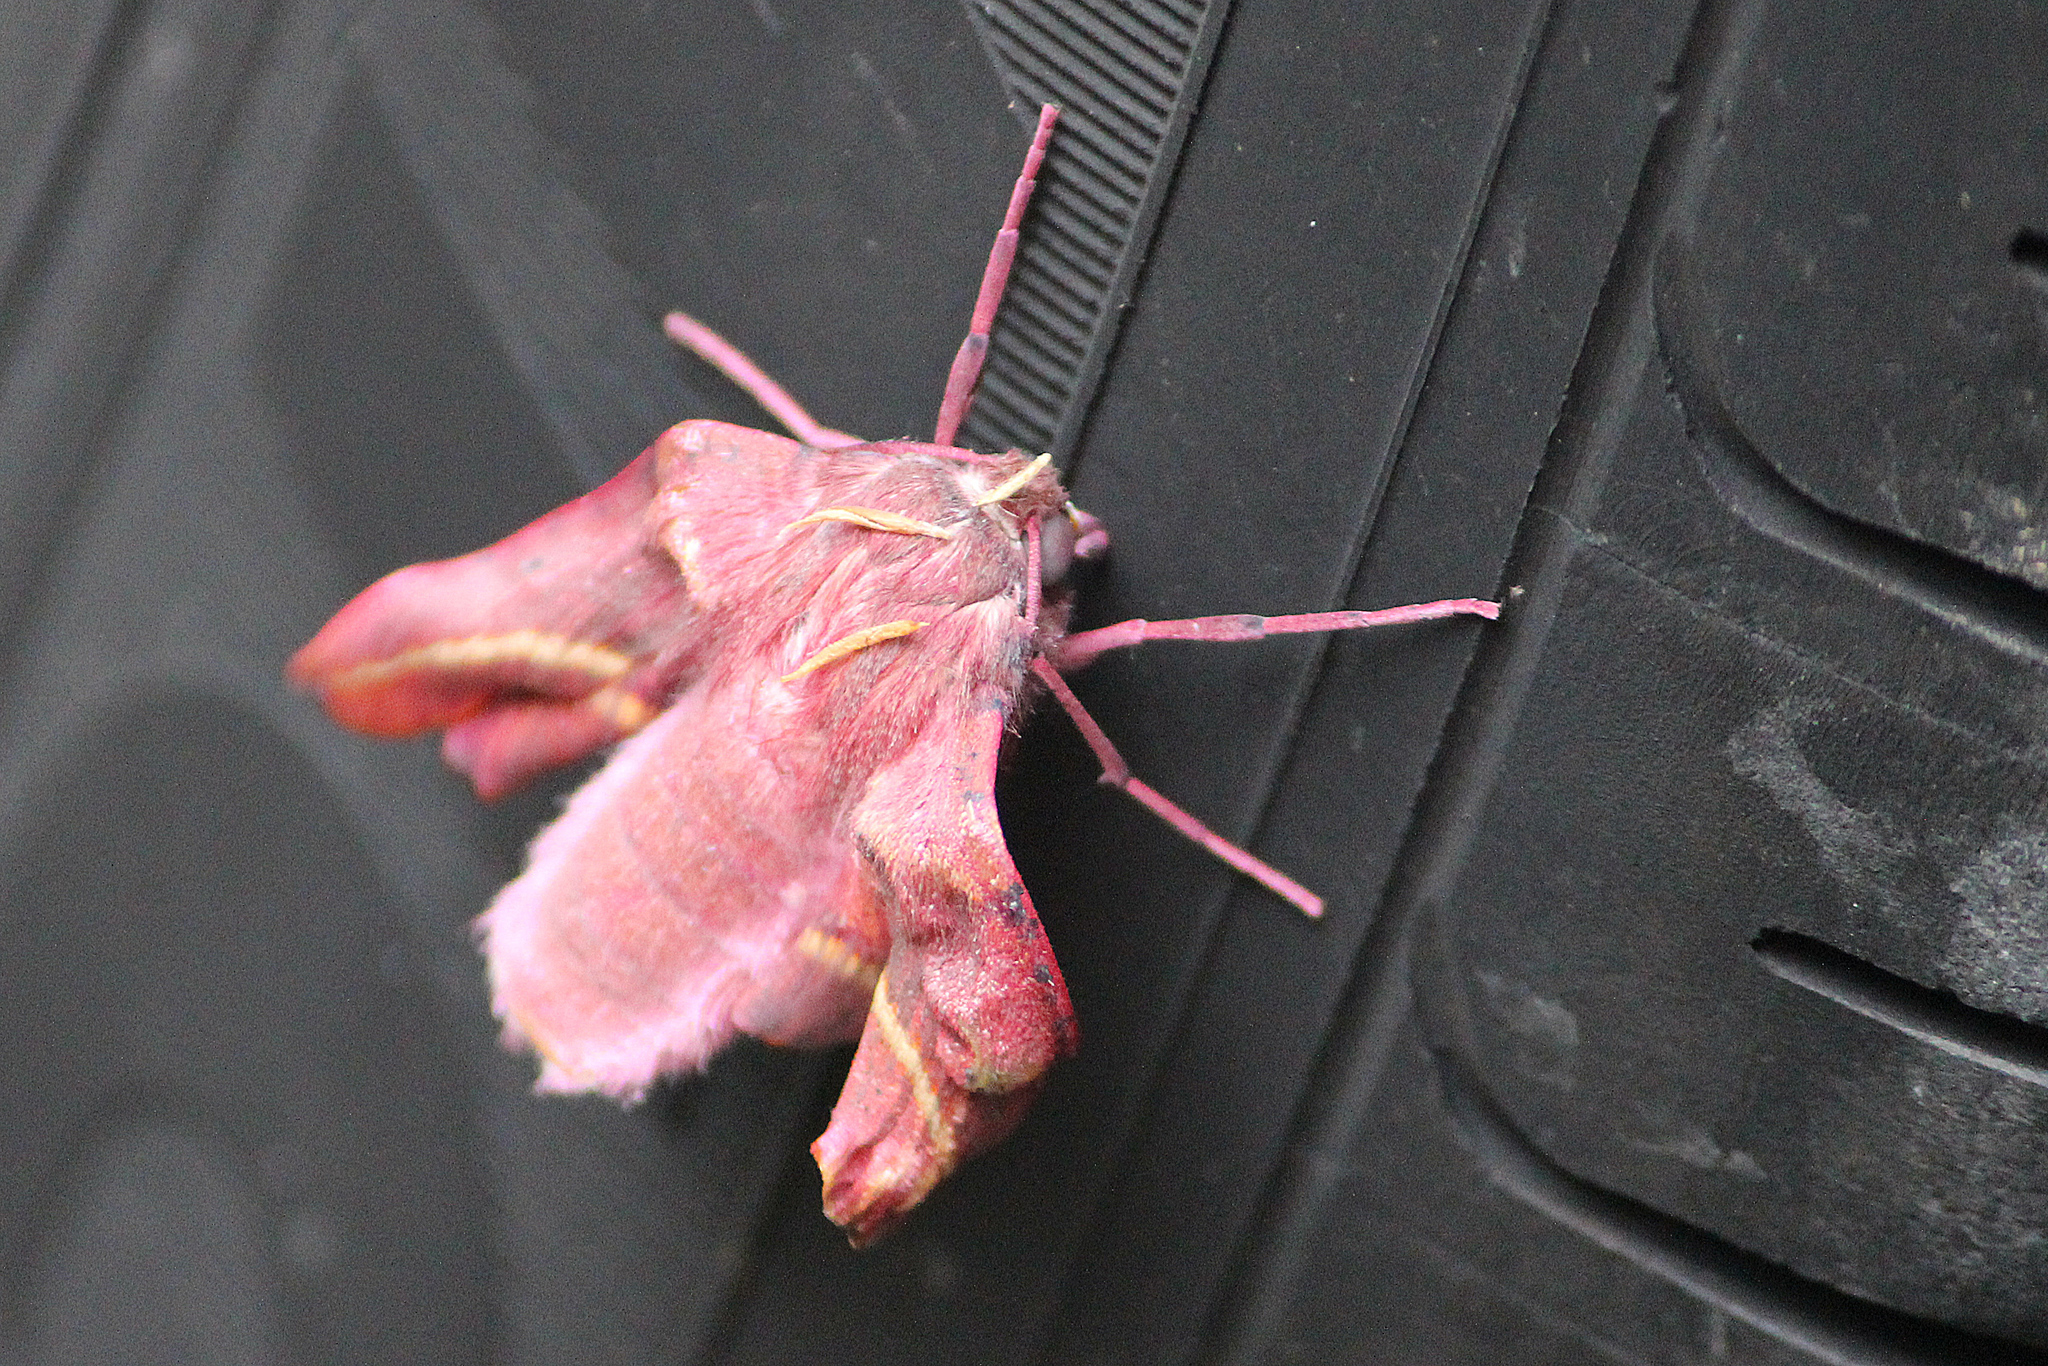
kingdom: Animalia
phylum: Arthropoda
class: Insecta
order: Lepidoptera
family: Geometridae
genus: Oenochroma
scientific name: Oenochroma vinaria
